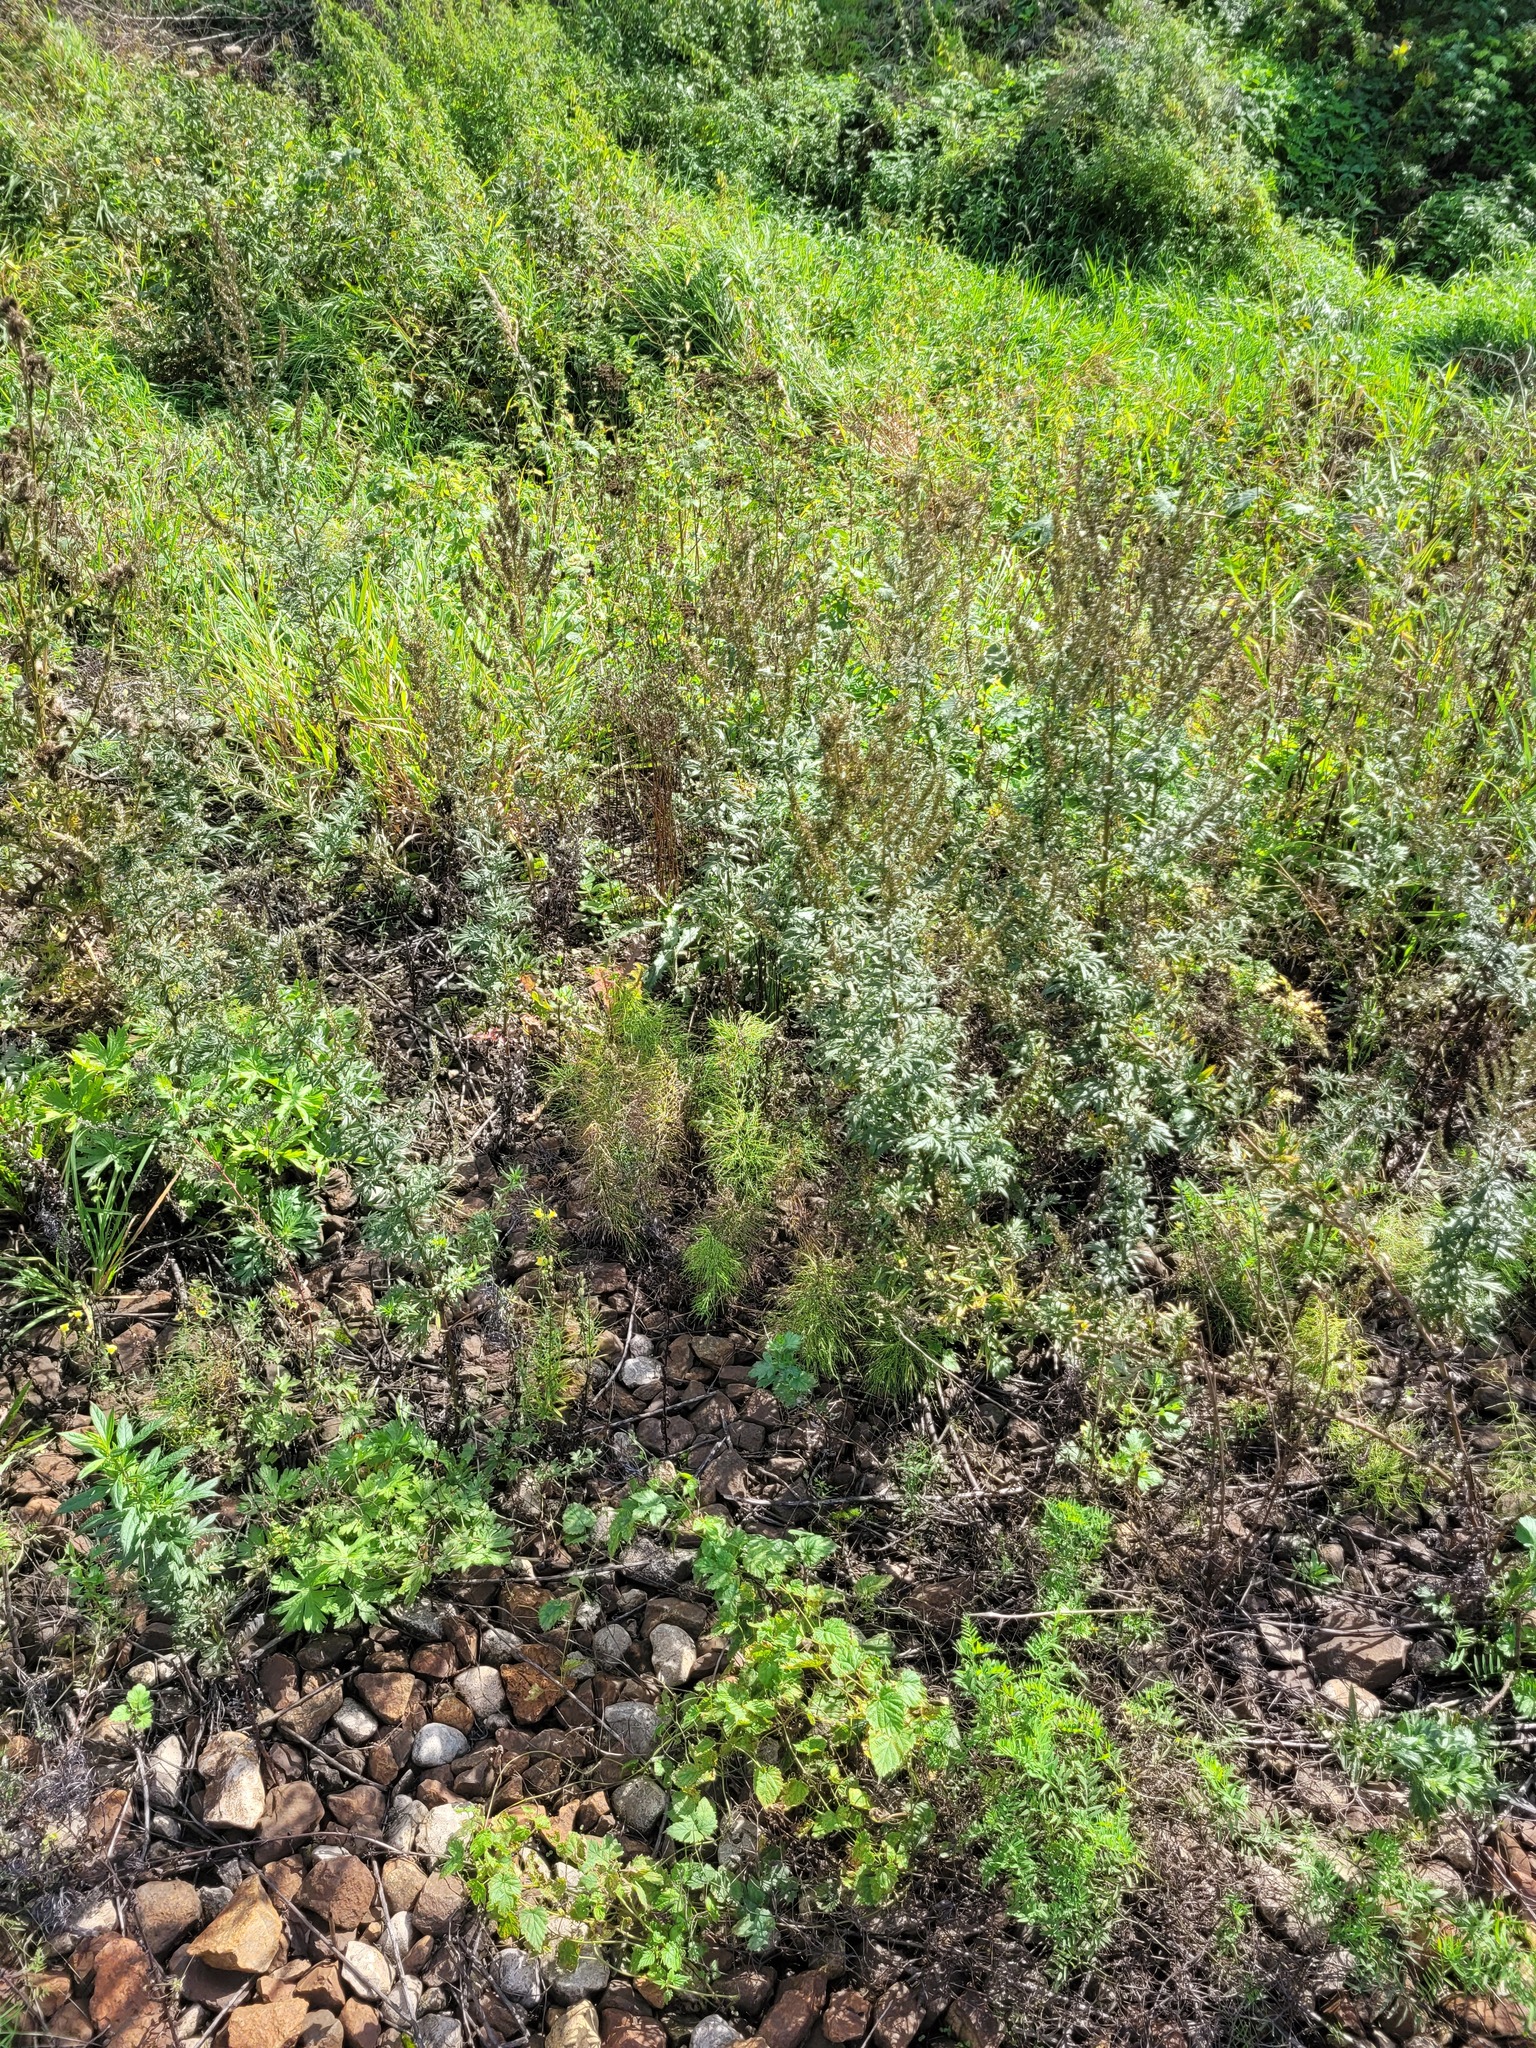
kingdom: Plantae
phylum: Tracheophyta
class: Polypodiopsida
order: Equisetales
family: Equisetaceae
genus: Equisetum
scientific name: Equisetum sylvaticum
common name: Wood horsetail
